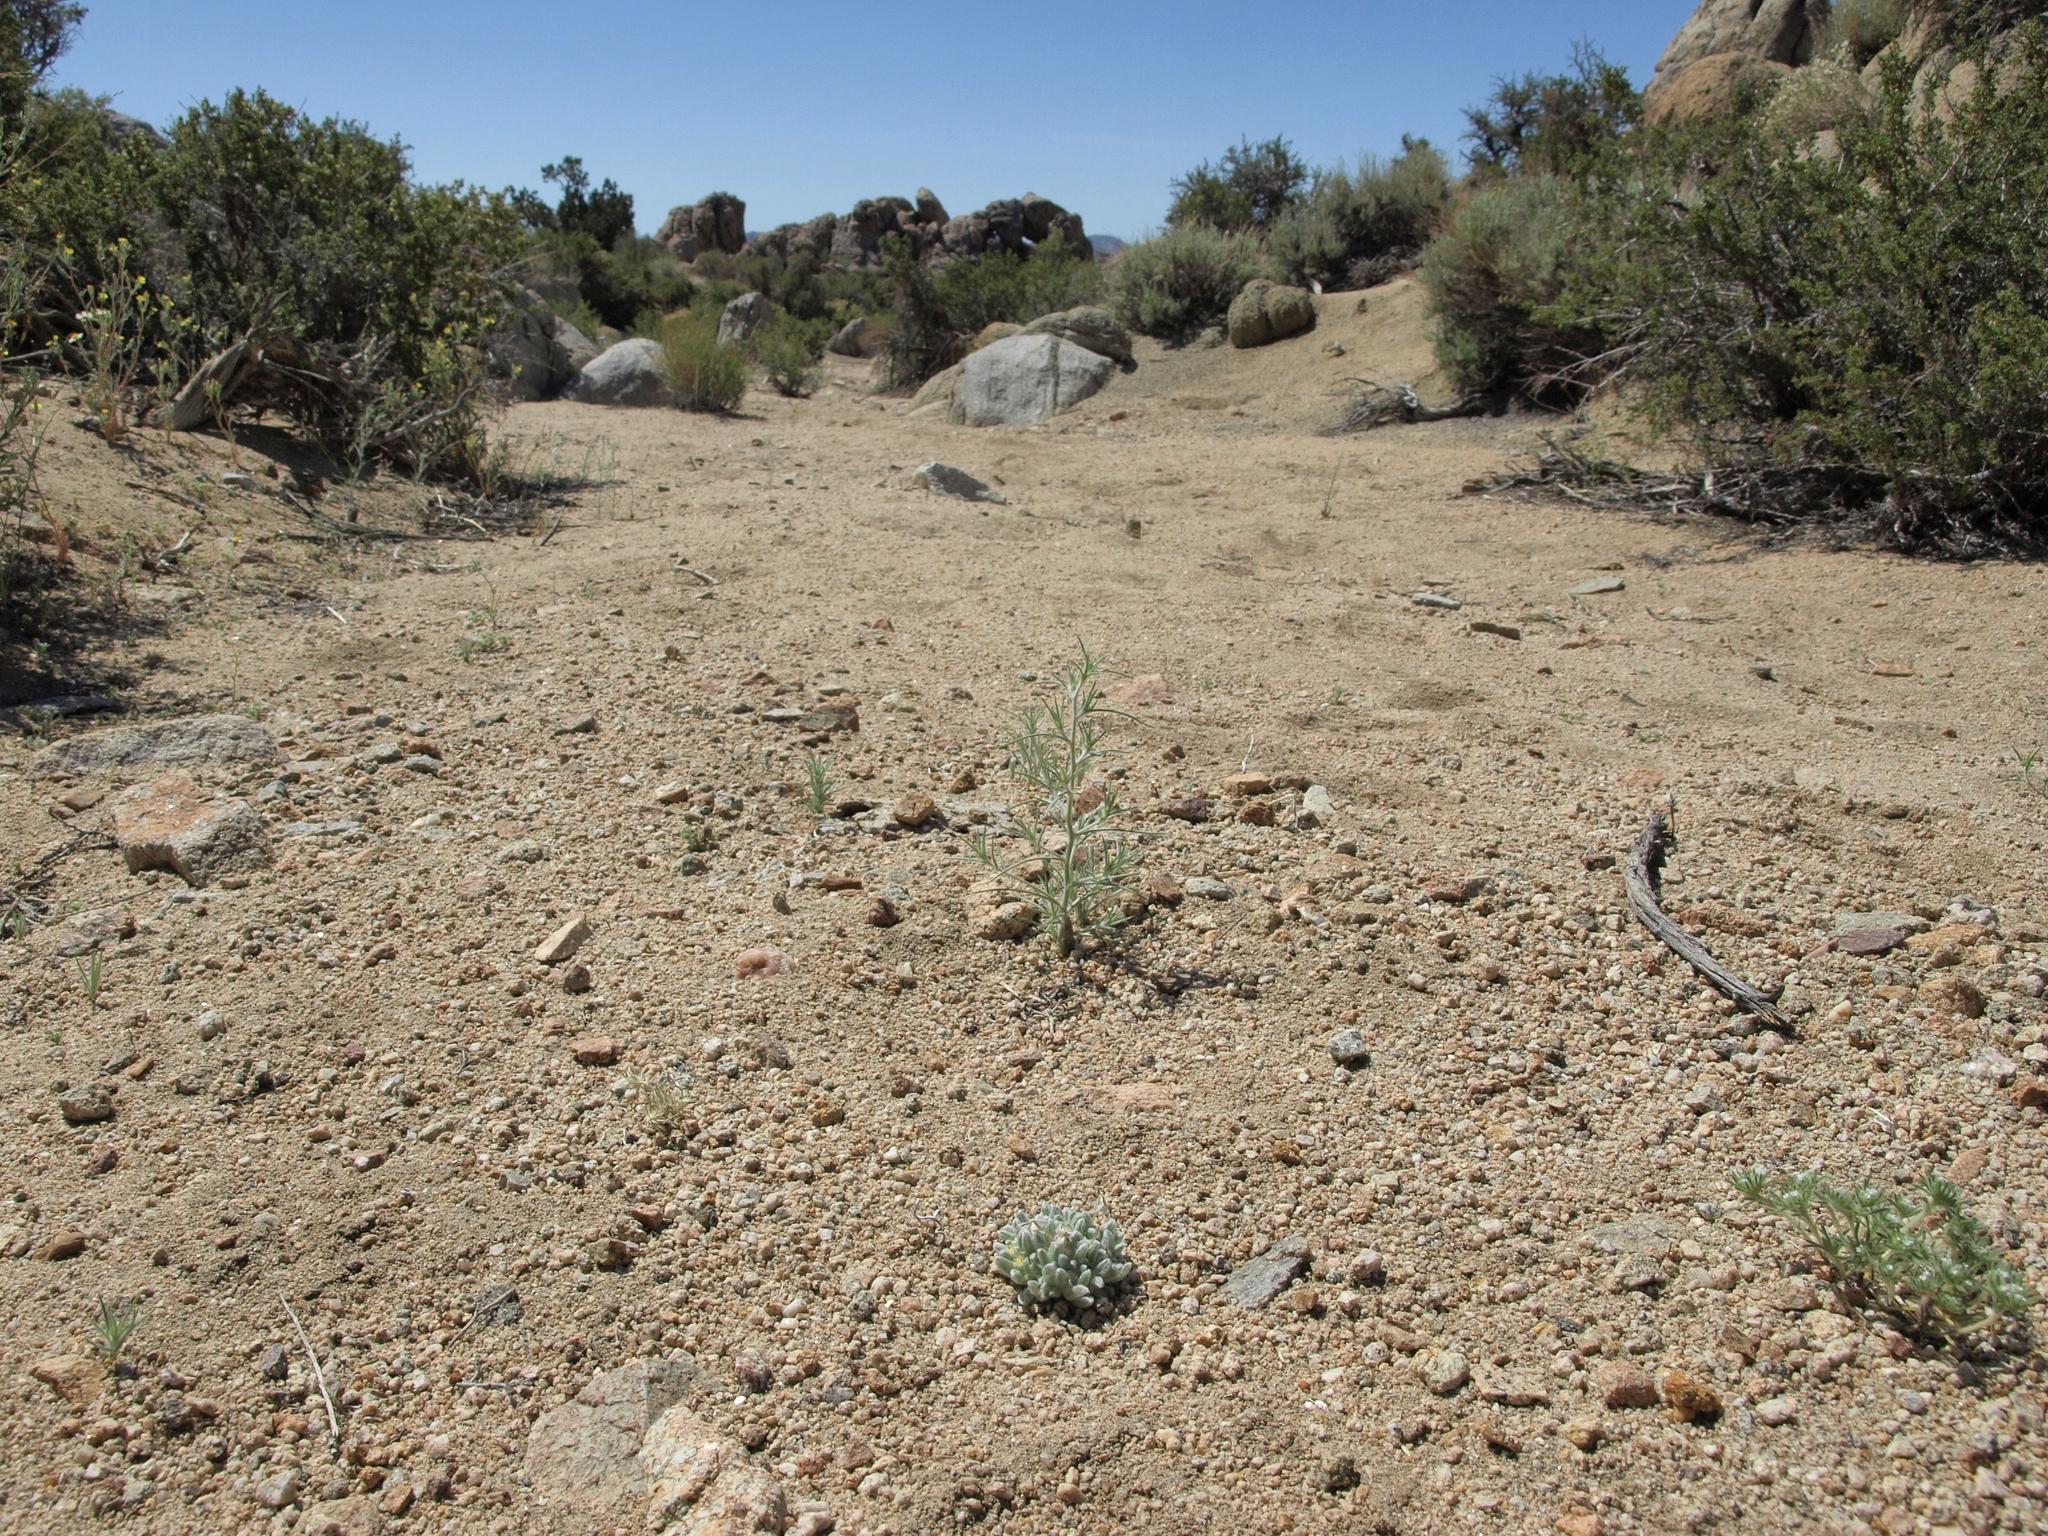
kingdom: Plantae
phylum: Tracheophyta
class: Magnoliopsida
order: Asterales
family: Asteraceae
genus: Eatonella
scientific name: Eatonella nivea
